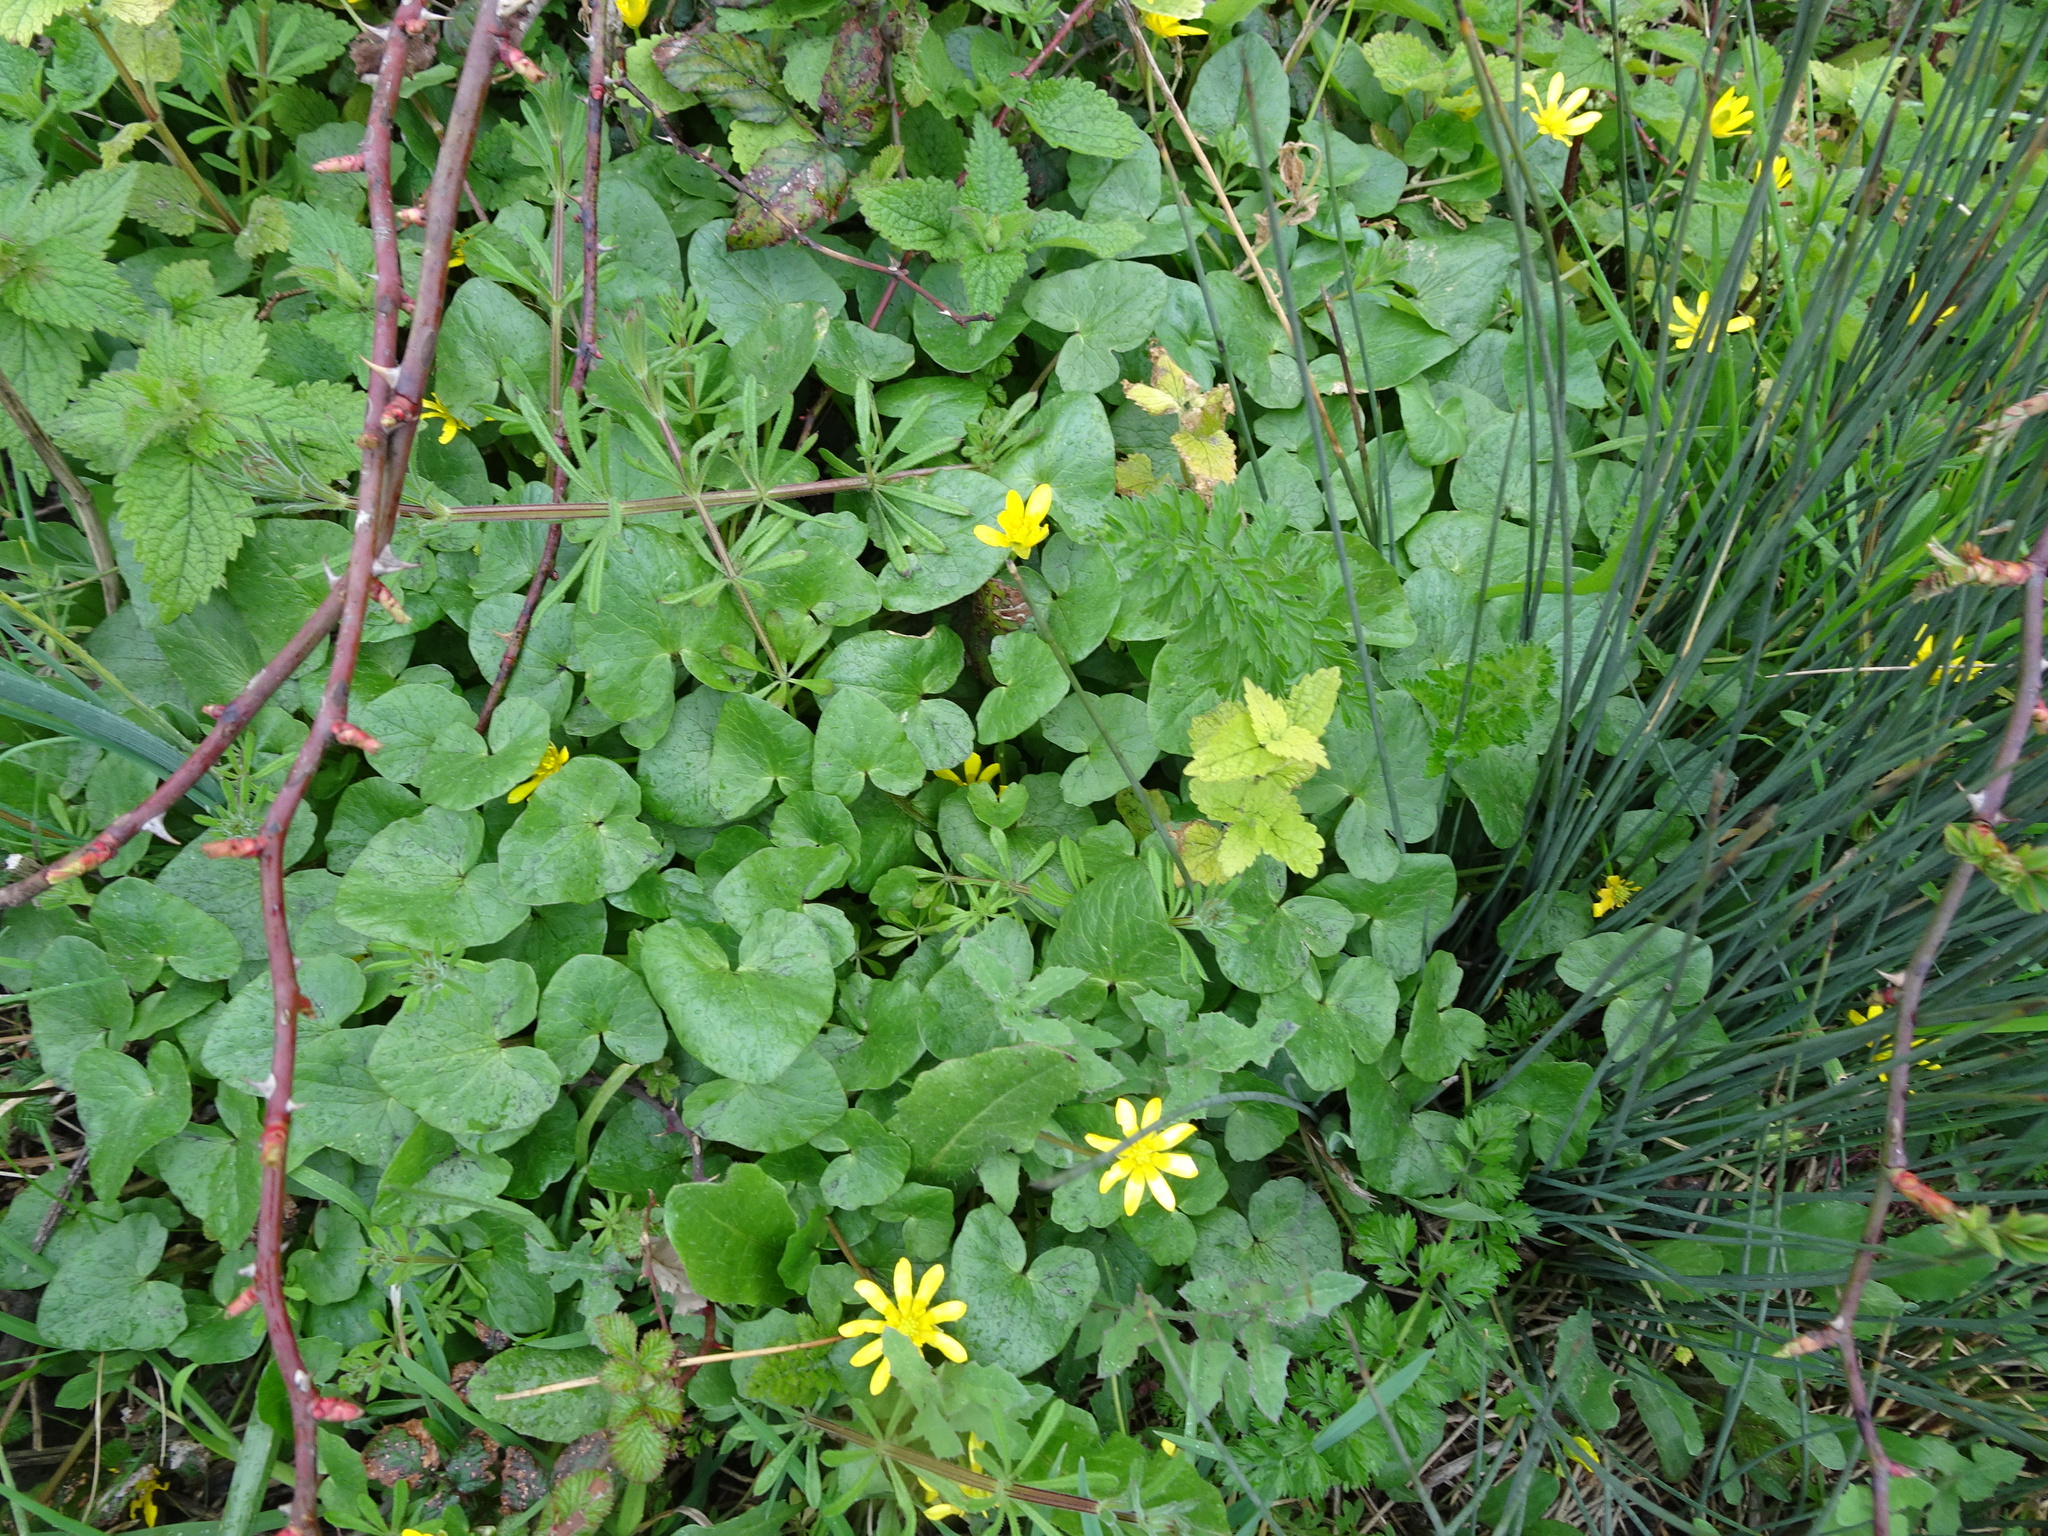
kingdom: Plantae
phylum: Tracheophyta
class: Magnoliopsida
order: Ranunculales
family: Ranunculaceae
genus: Ficaria
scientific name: Ficaria verna
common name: Lesser celandine
